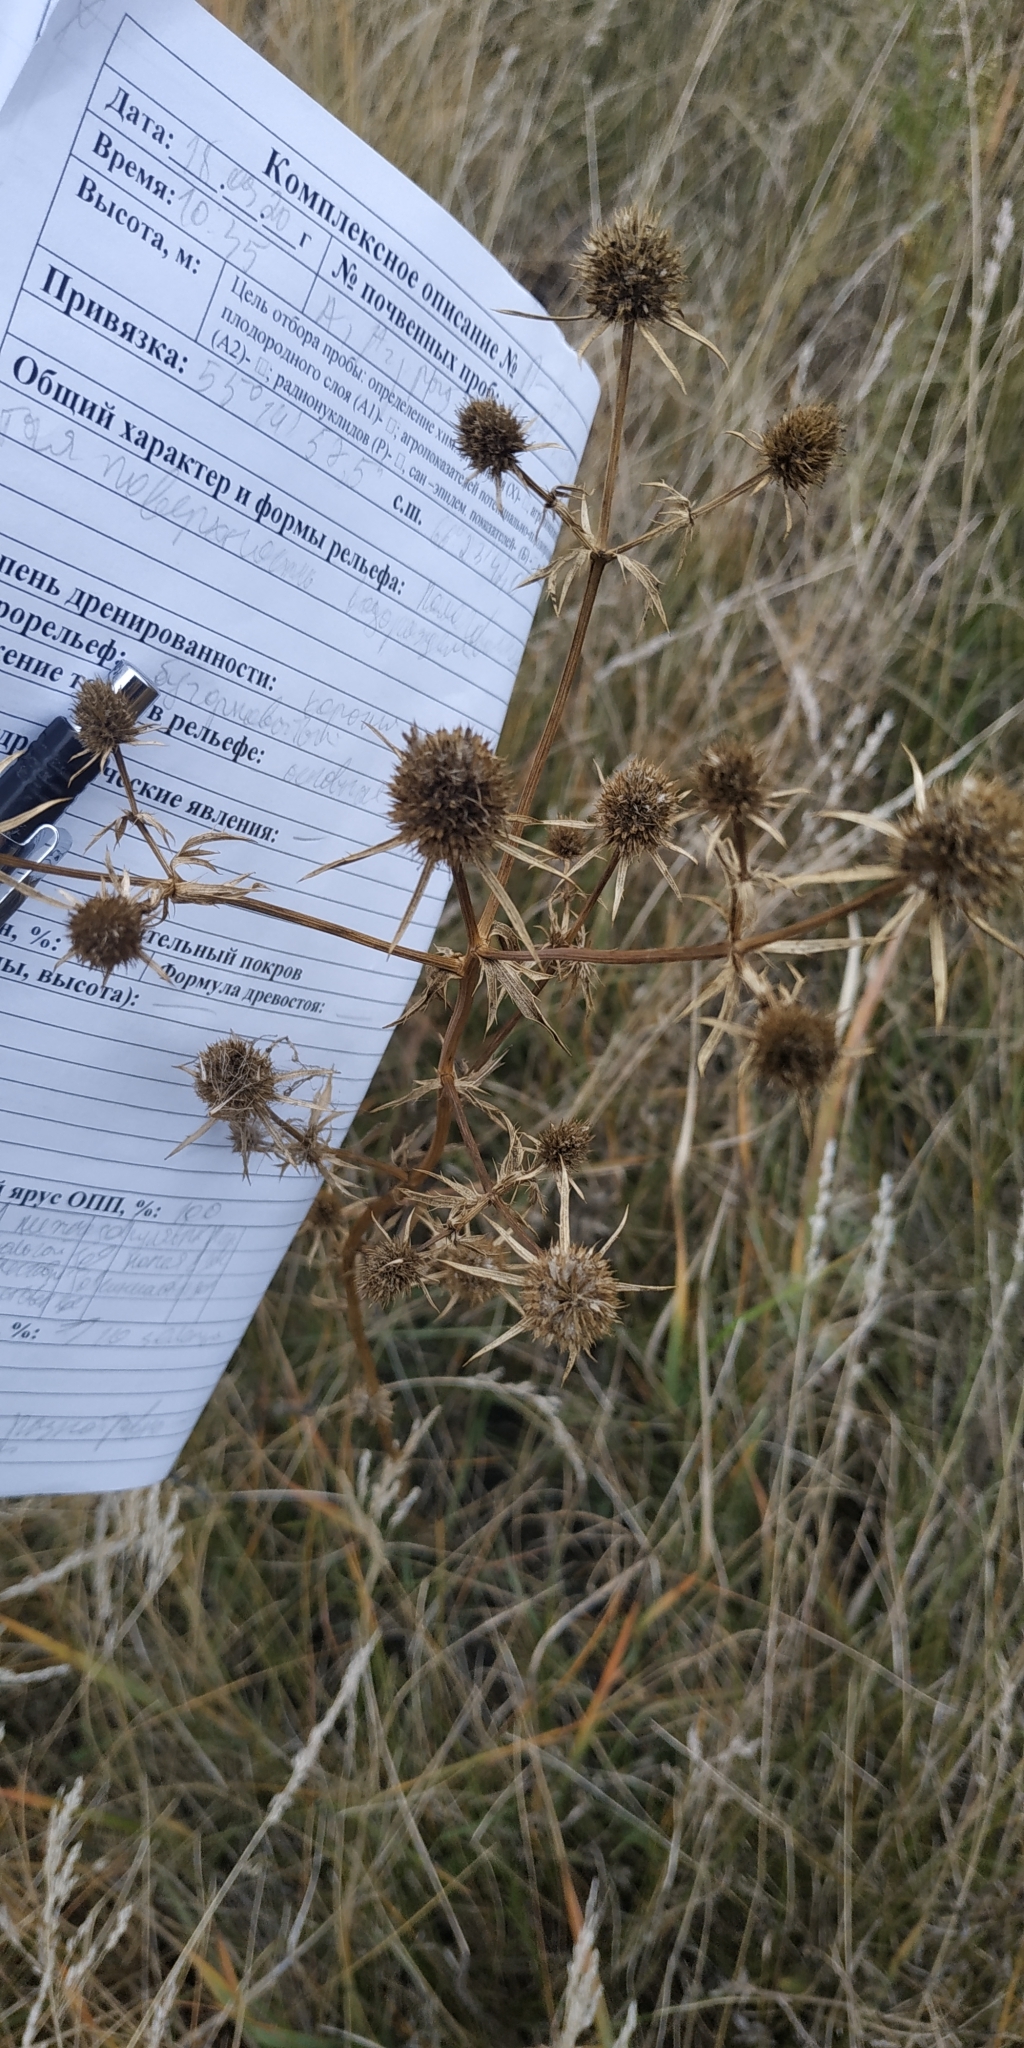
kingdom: Plantae
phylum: Tracheophyta
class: Magnoliopsida
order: Apiales
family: Apiaceae
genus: Eryngium
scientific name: Eryngium planum
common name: Blue eryngo
